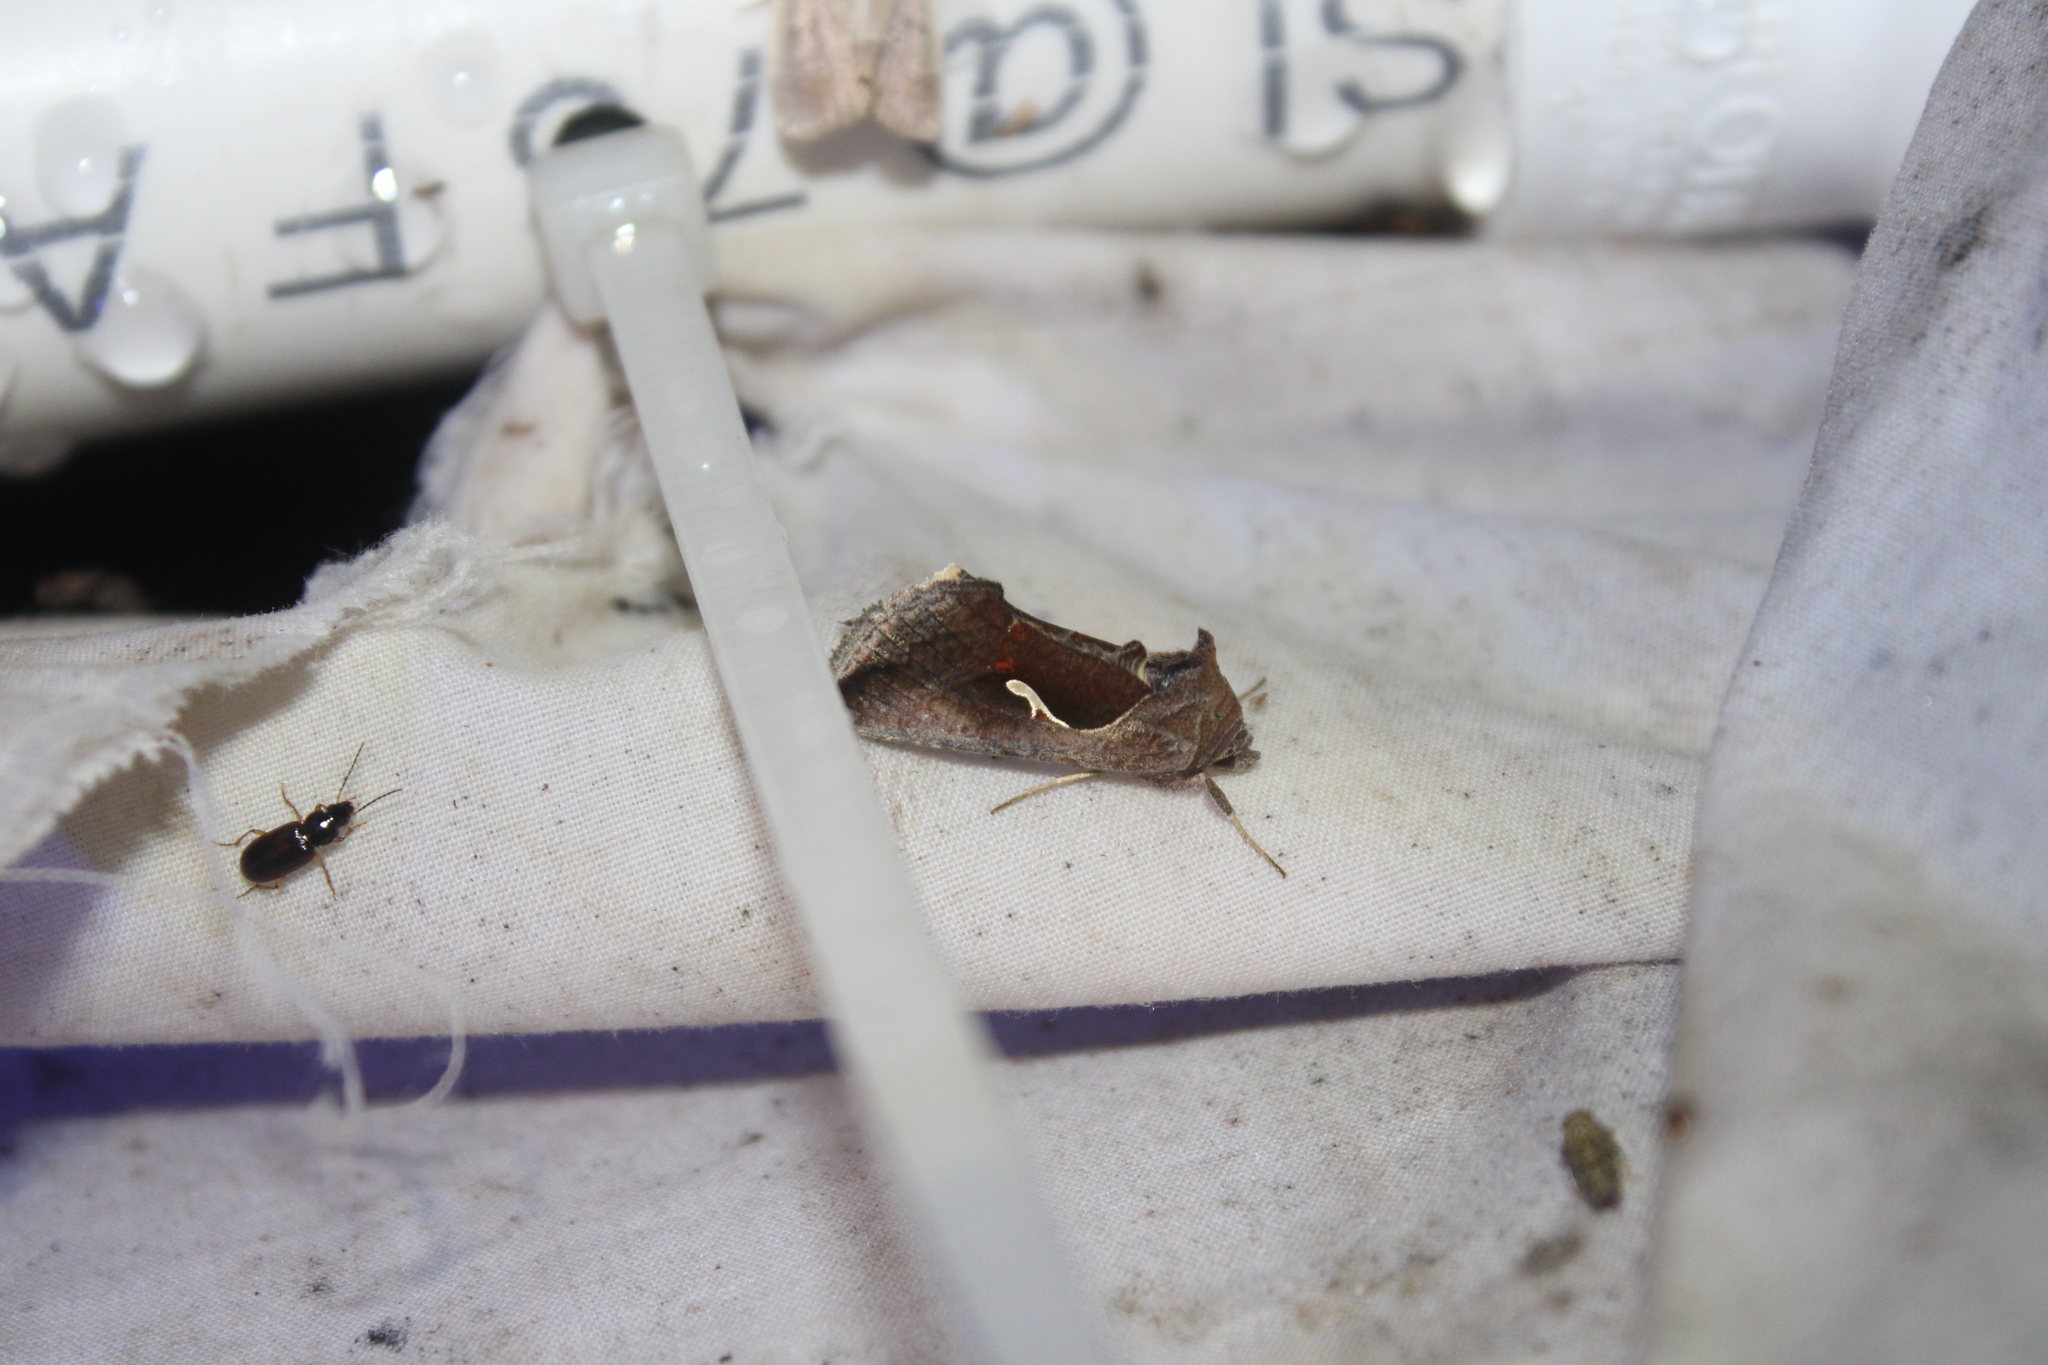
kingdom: Animalia
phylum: Arthropoda
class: Insecta
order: Lepidoptera
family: Noctuidae
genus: Anagrapha
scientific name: Anagrapha falcifera
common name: Celery looper
